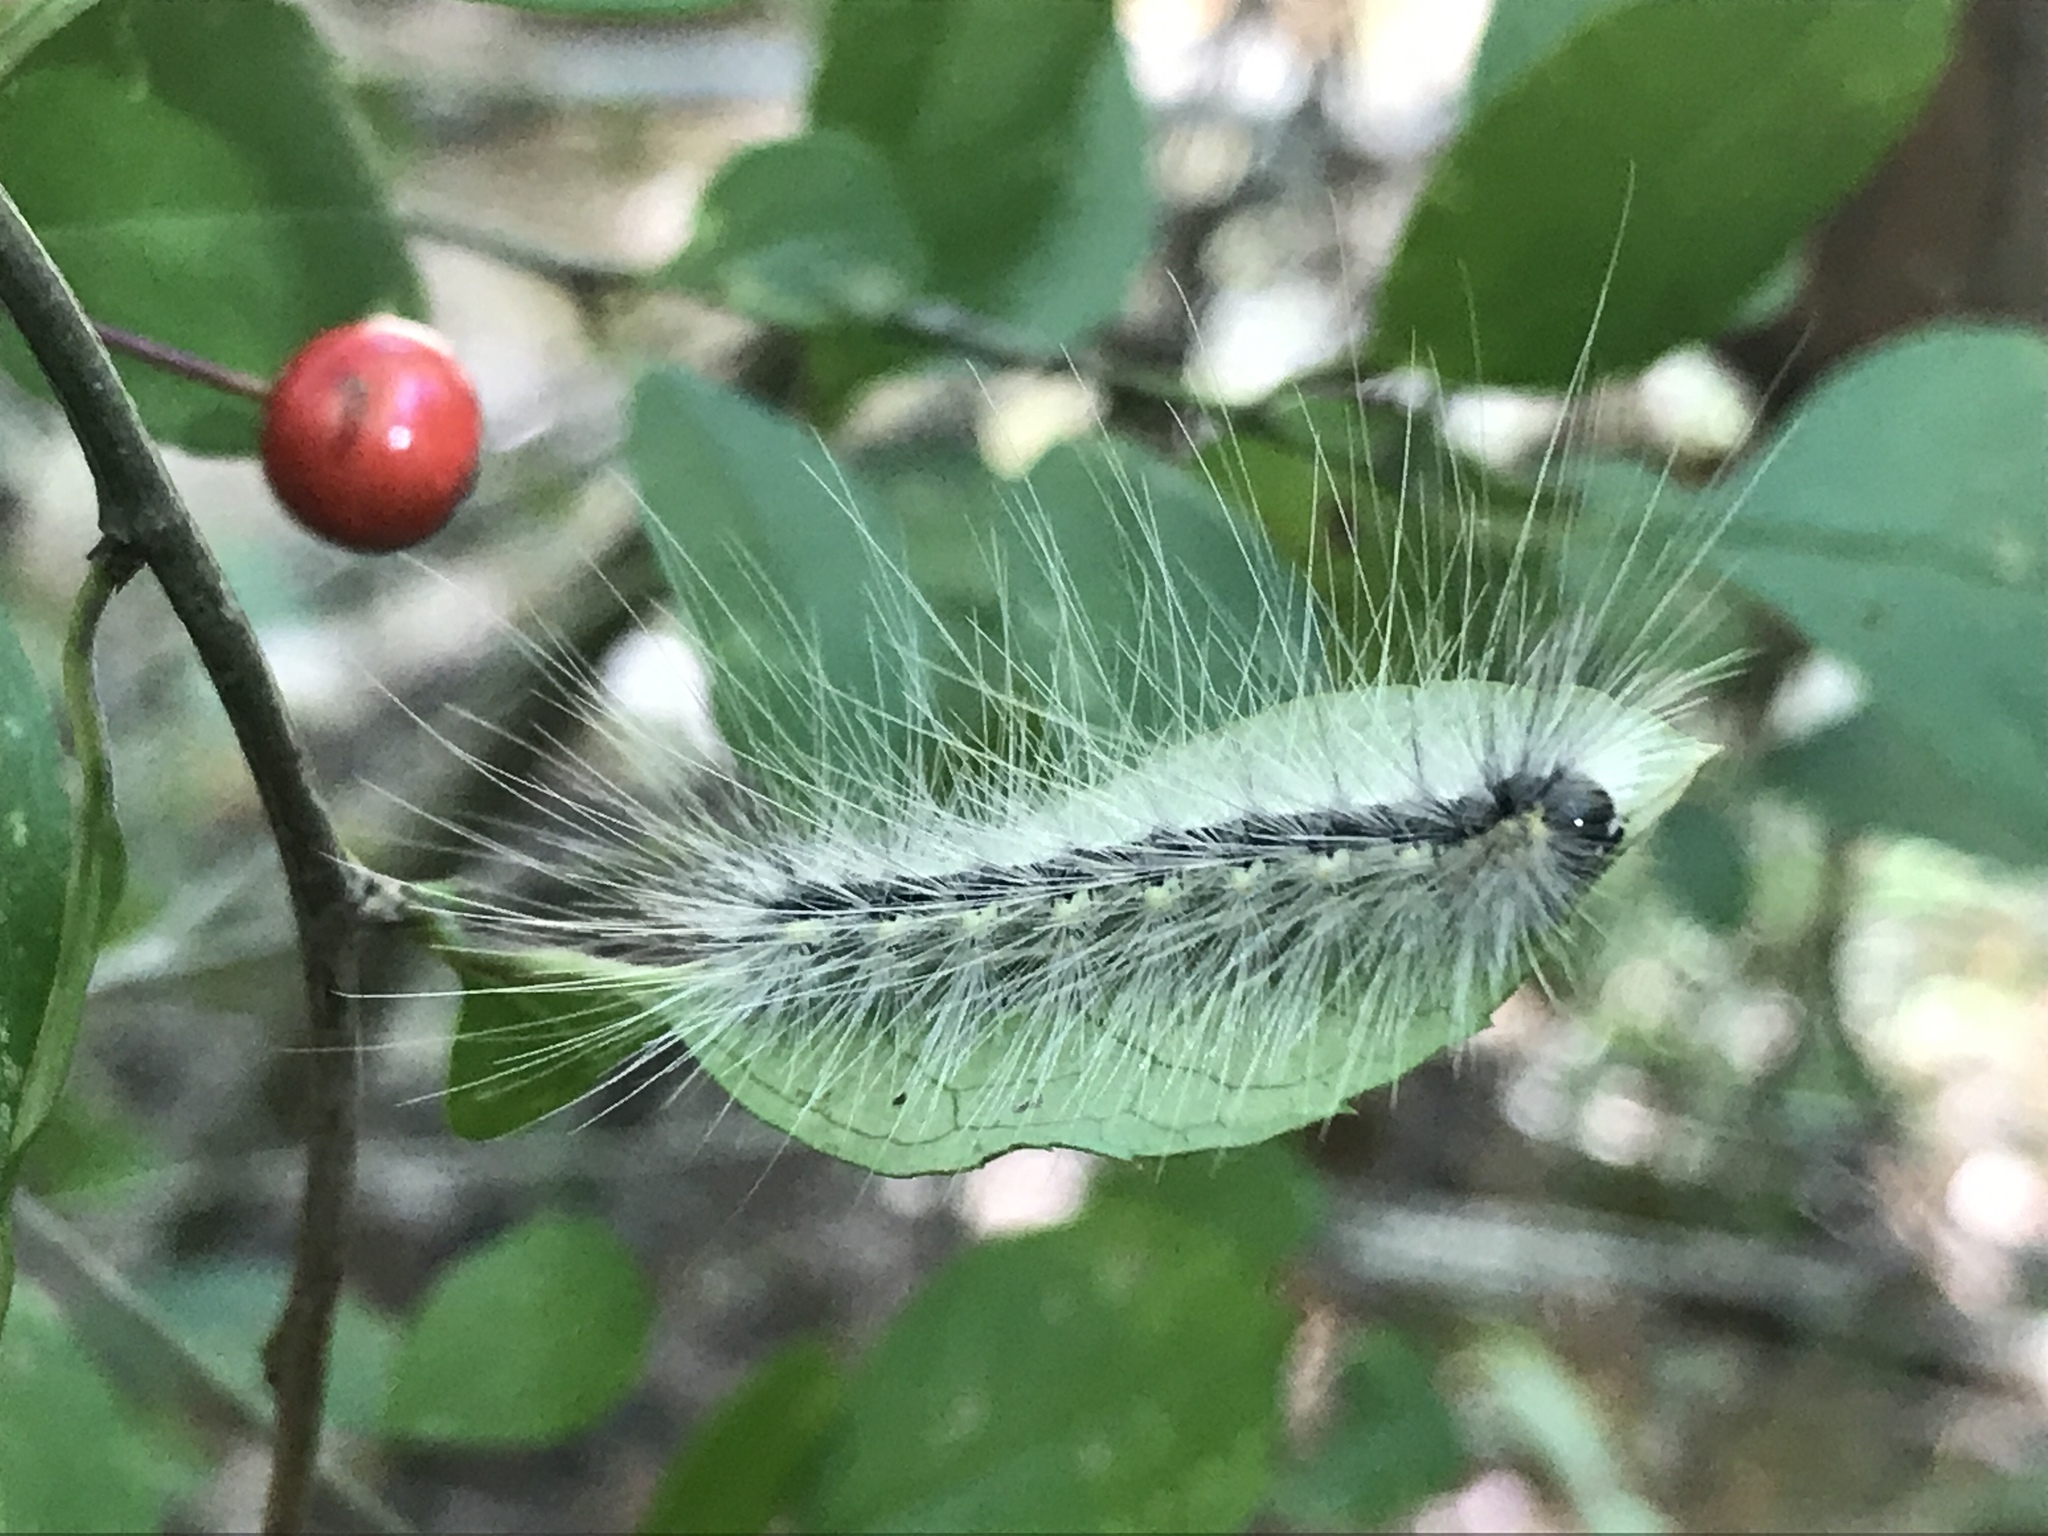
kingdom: Animalia
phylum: Arthropoda
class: Insecta
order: Lepidoptera
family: Erebidae
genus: Hyphantria
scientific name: Hyphantria cunea
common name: American white moth
